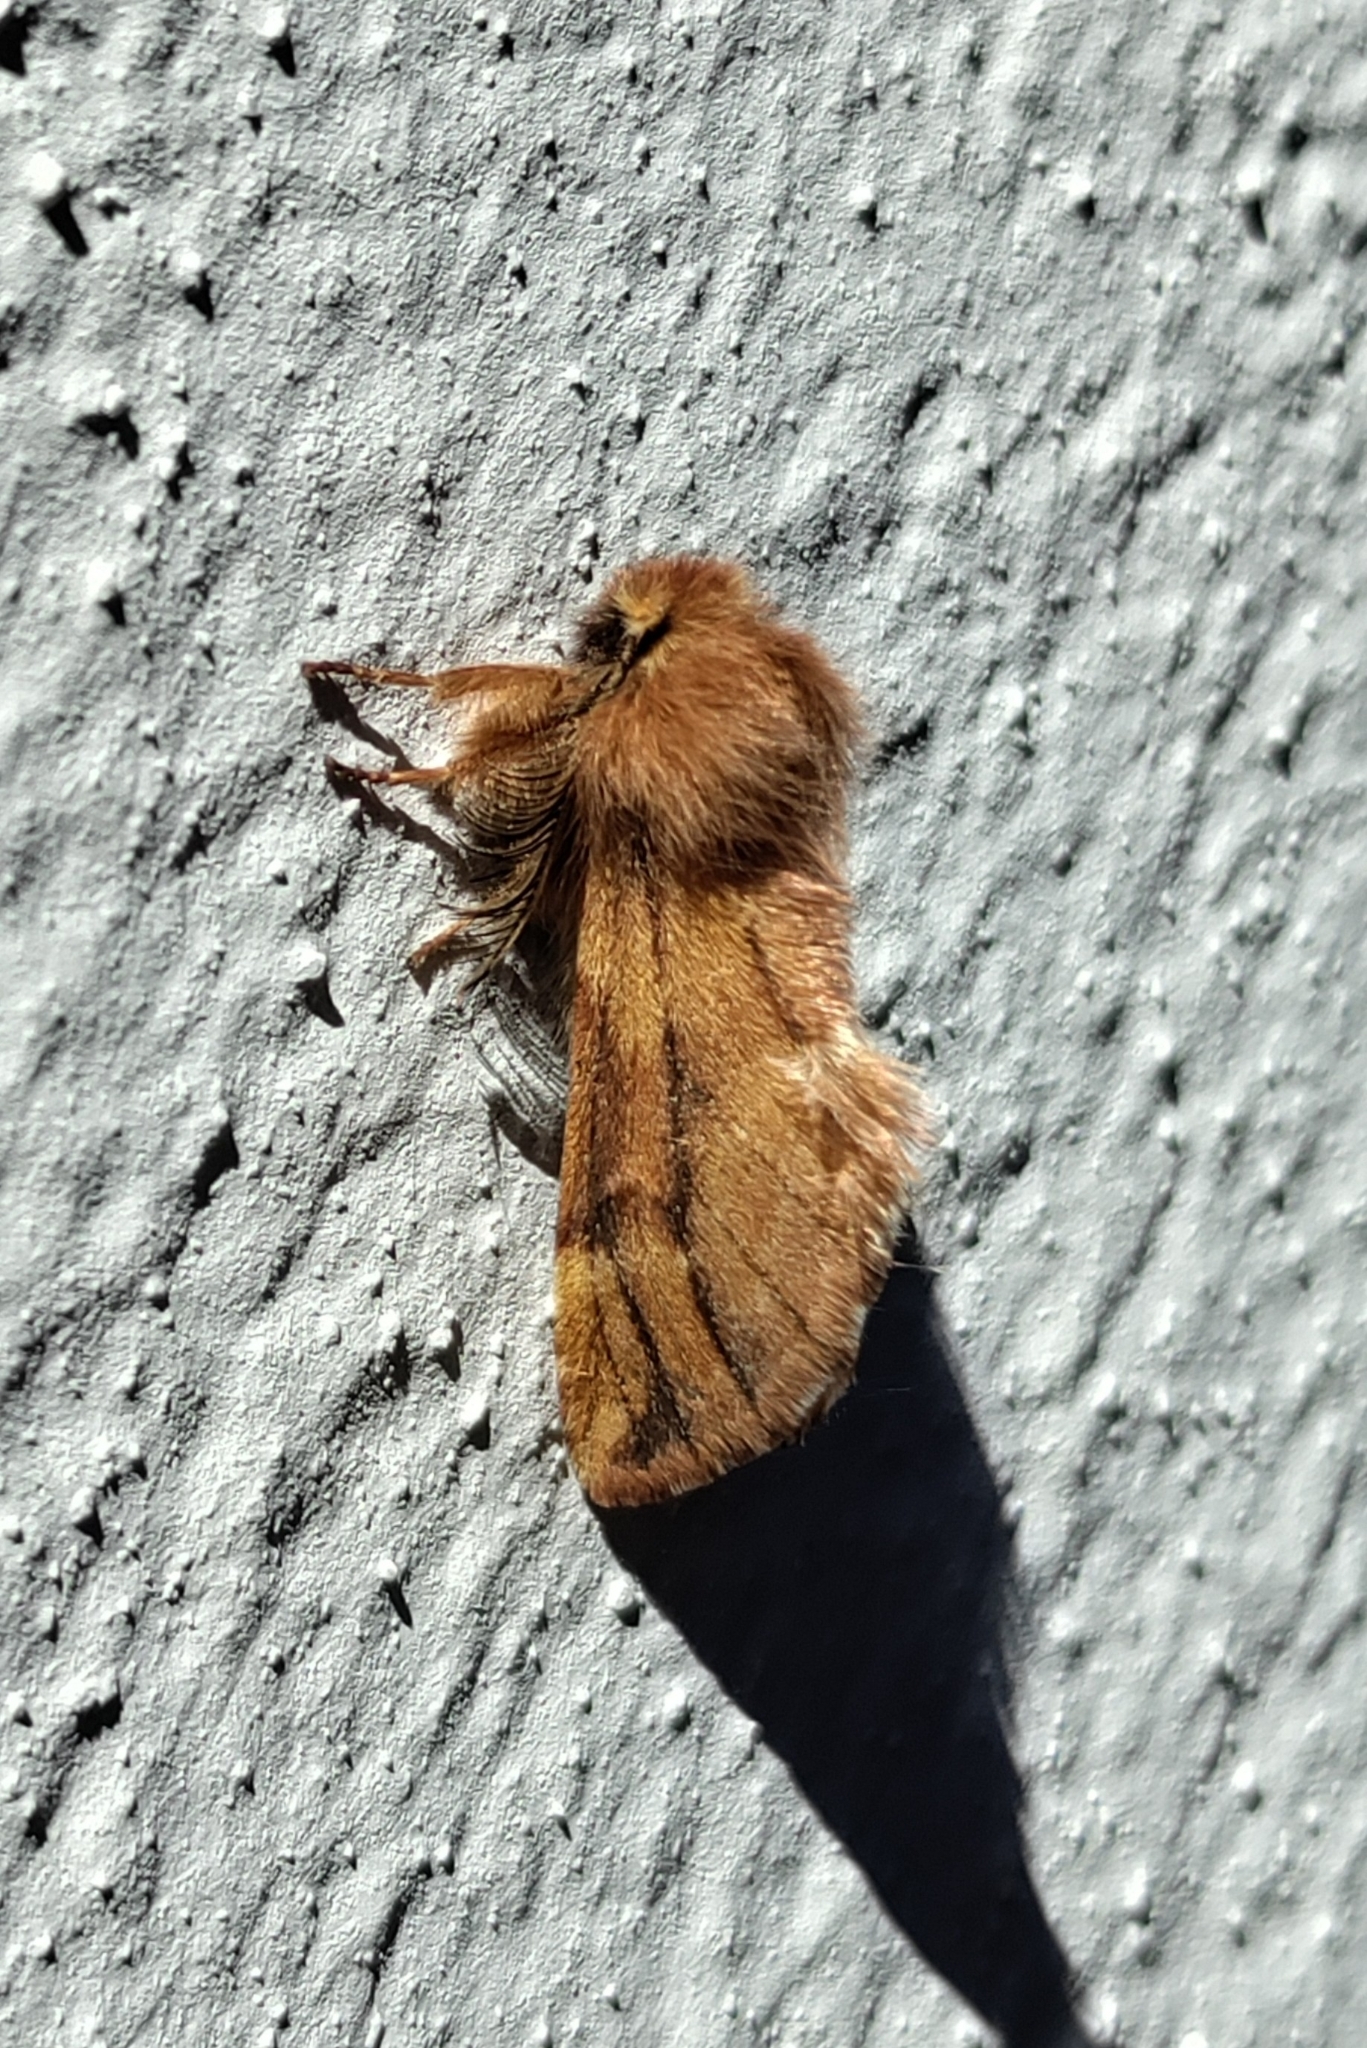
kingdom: Animalia
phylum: Arthropoda
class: Insecta
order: Lepidoptera
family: Notodontidae
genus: Ptilophora
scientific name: Ptilophora plumigera
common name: Plumed prominent
